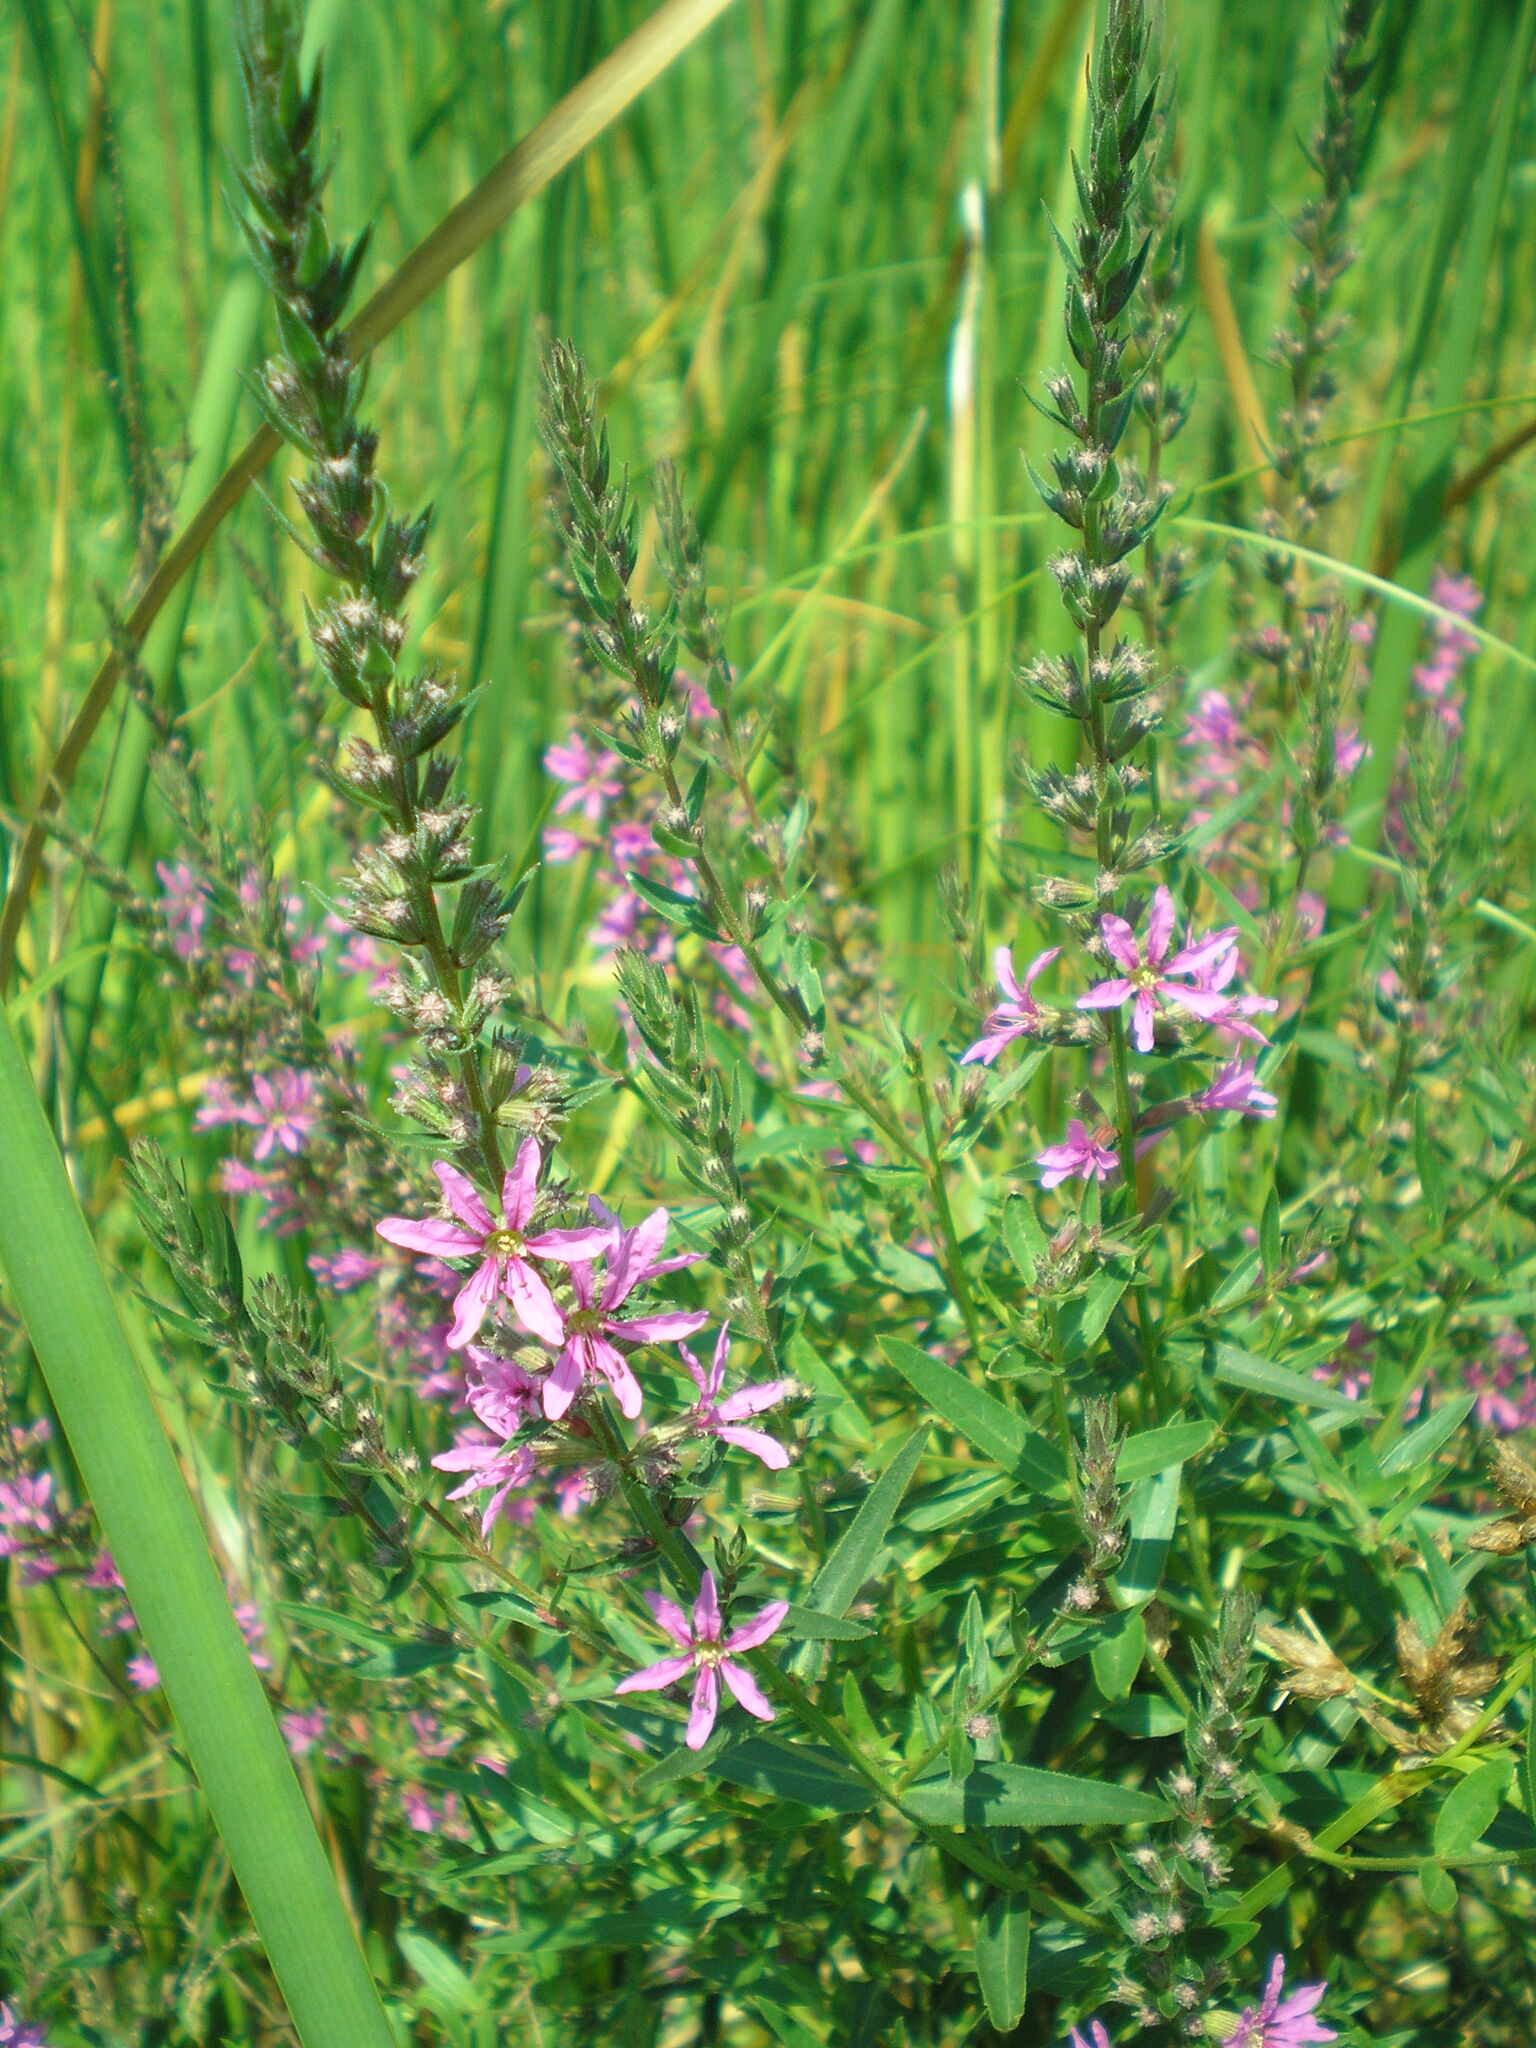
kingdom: Plantae
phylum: Tracheophyta
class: Magnoliopsida
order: Myrtales
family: Lythraceae
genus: Lythrum
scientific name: Lythrum virgatum
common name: European wand loosestrife
